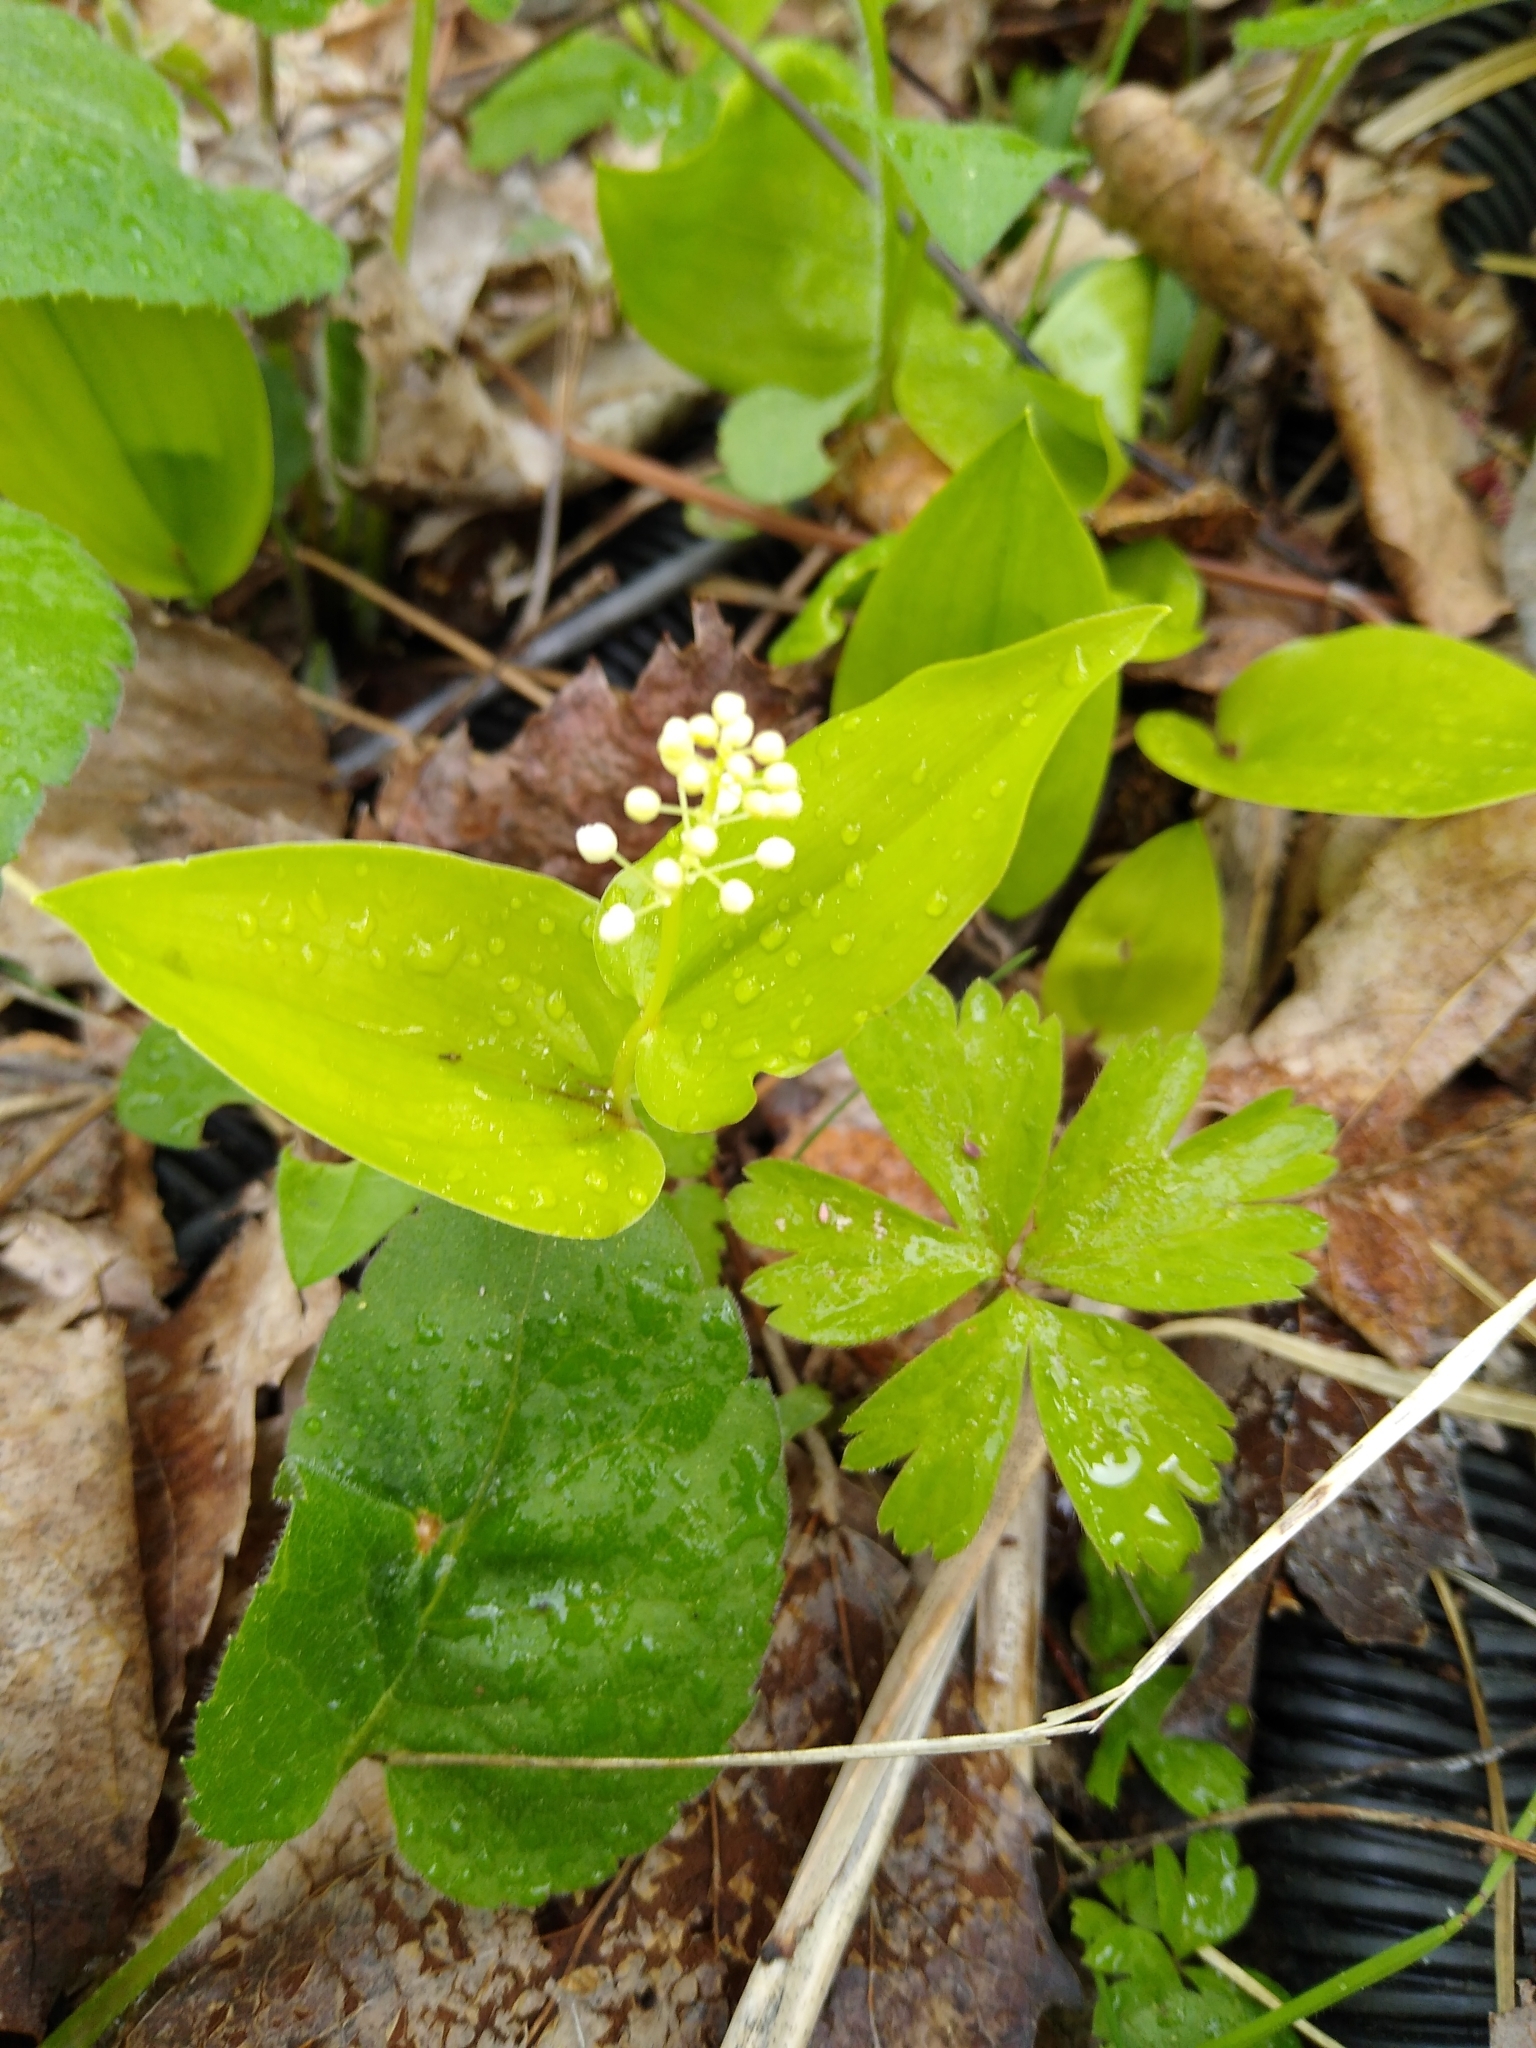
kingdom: Plantae
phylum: Tracheophyta
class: Liliopsida
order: Asparagales
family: Asparagaceae
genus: Maianthemum
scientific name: Maianthemum canadense
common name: False lily-of-the-valley
